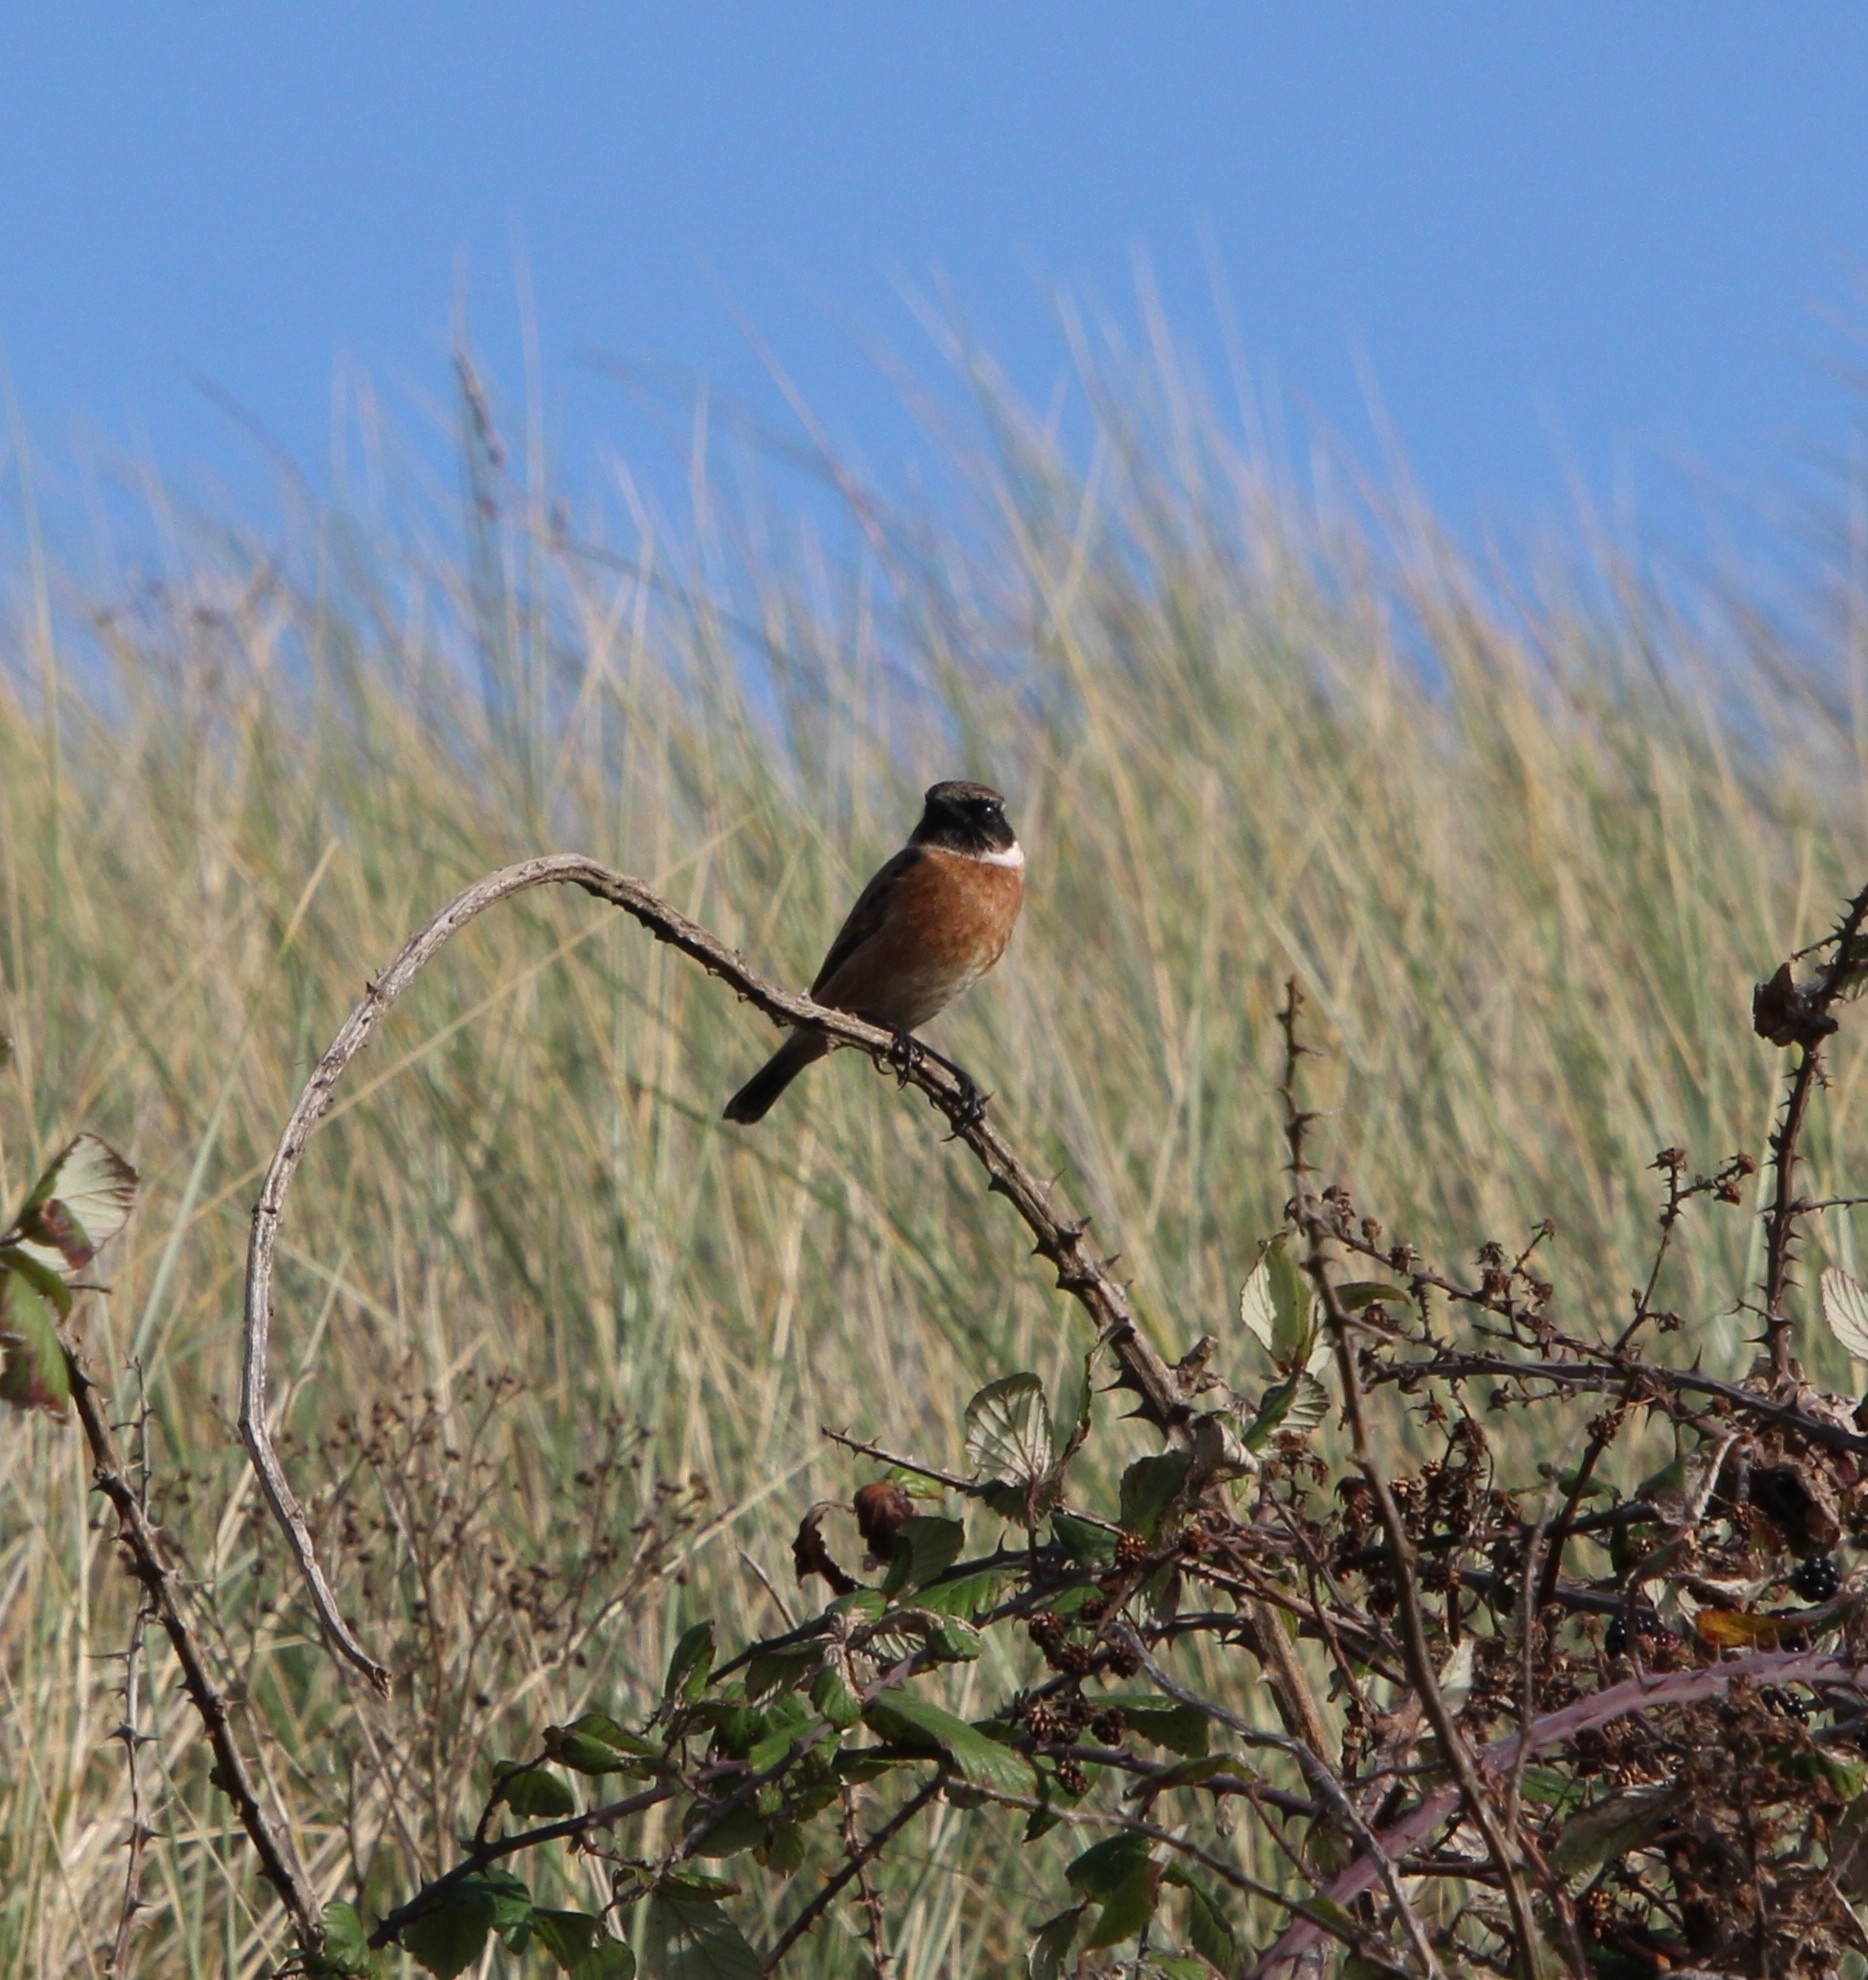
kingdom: Animalia
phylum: Chordata
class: Aves
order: Passeriformes
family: Muscicapidae
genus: Saxicola
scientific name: Saxicola rubicola
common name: European stonechat
